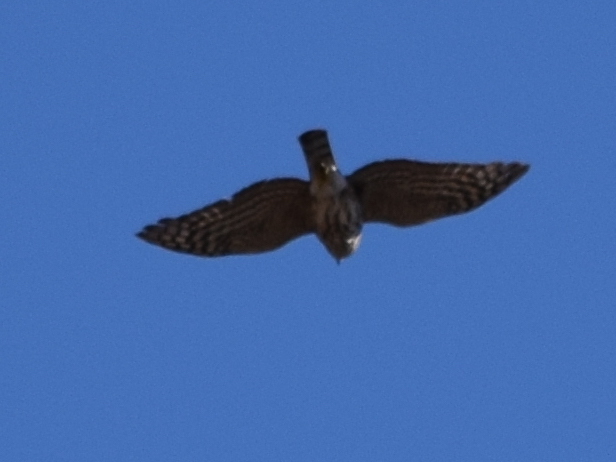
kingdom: Animalia
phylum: Chordata
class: Aves
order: Accipitriformes
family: Accipitridae
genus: Accipiter
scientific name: Accipiter striatus
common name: Sharp-shinned hawk
